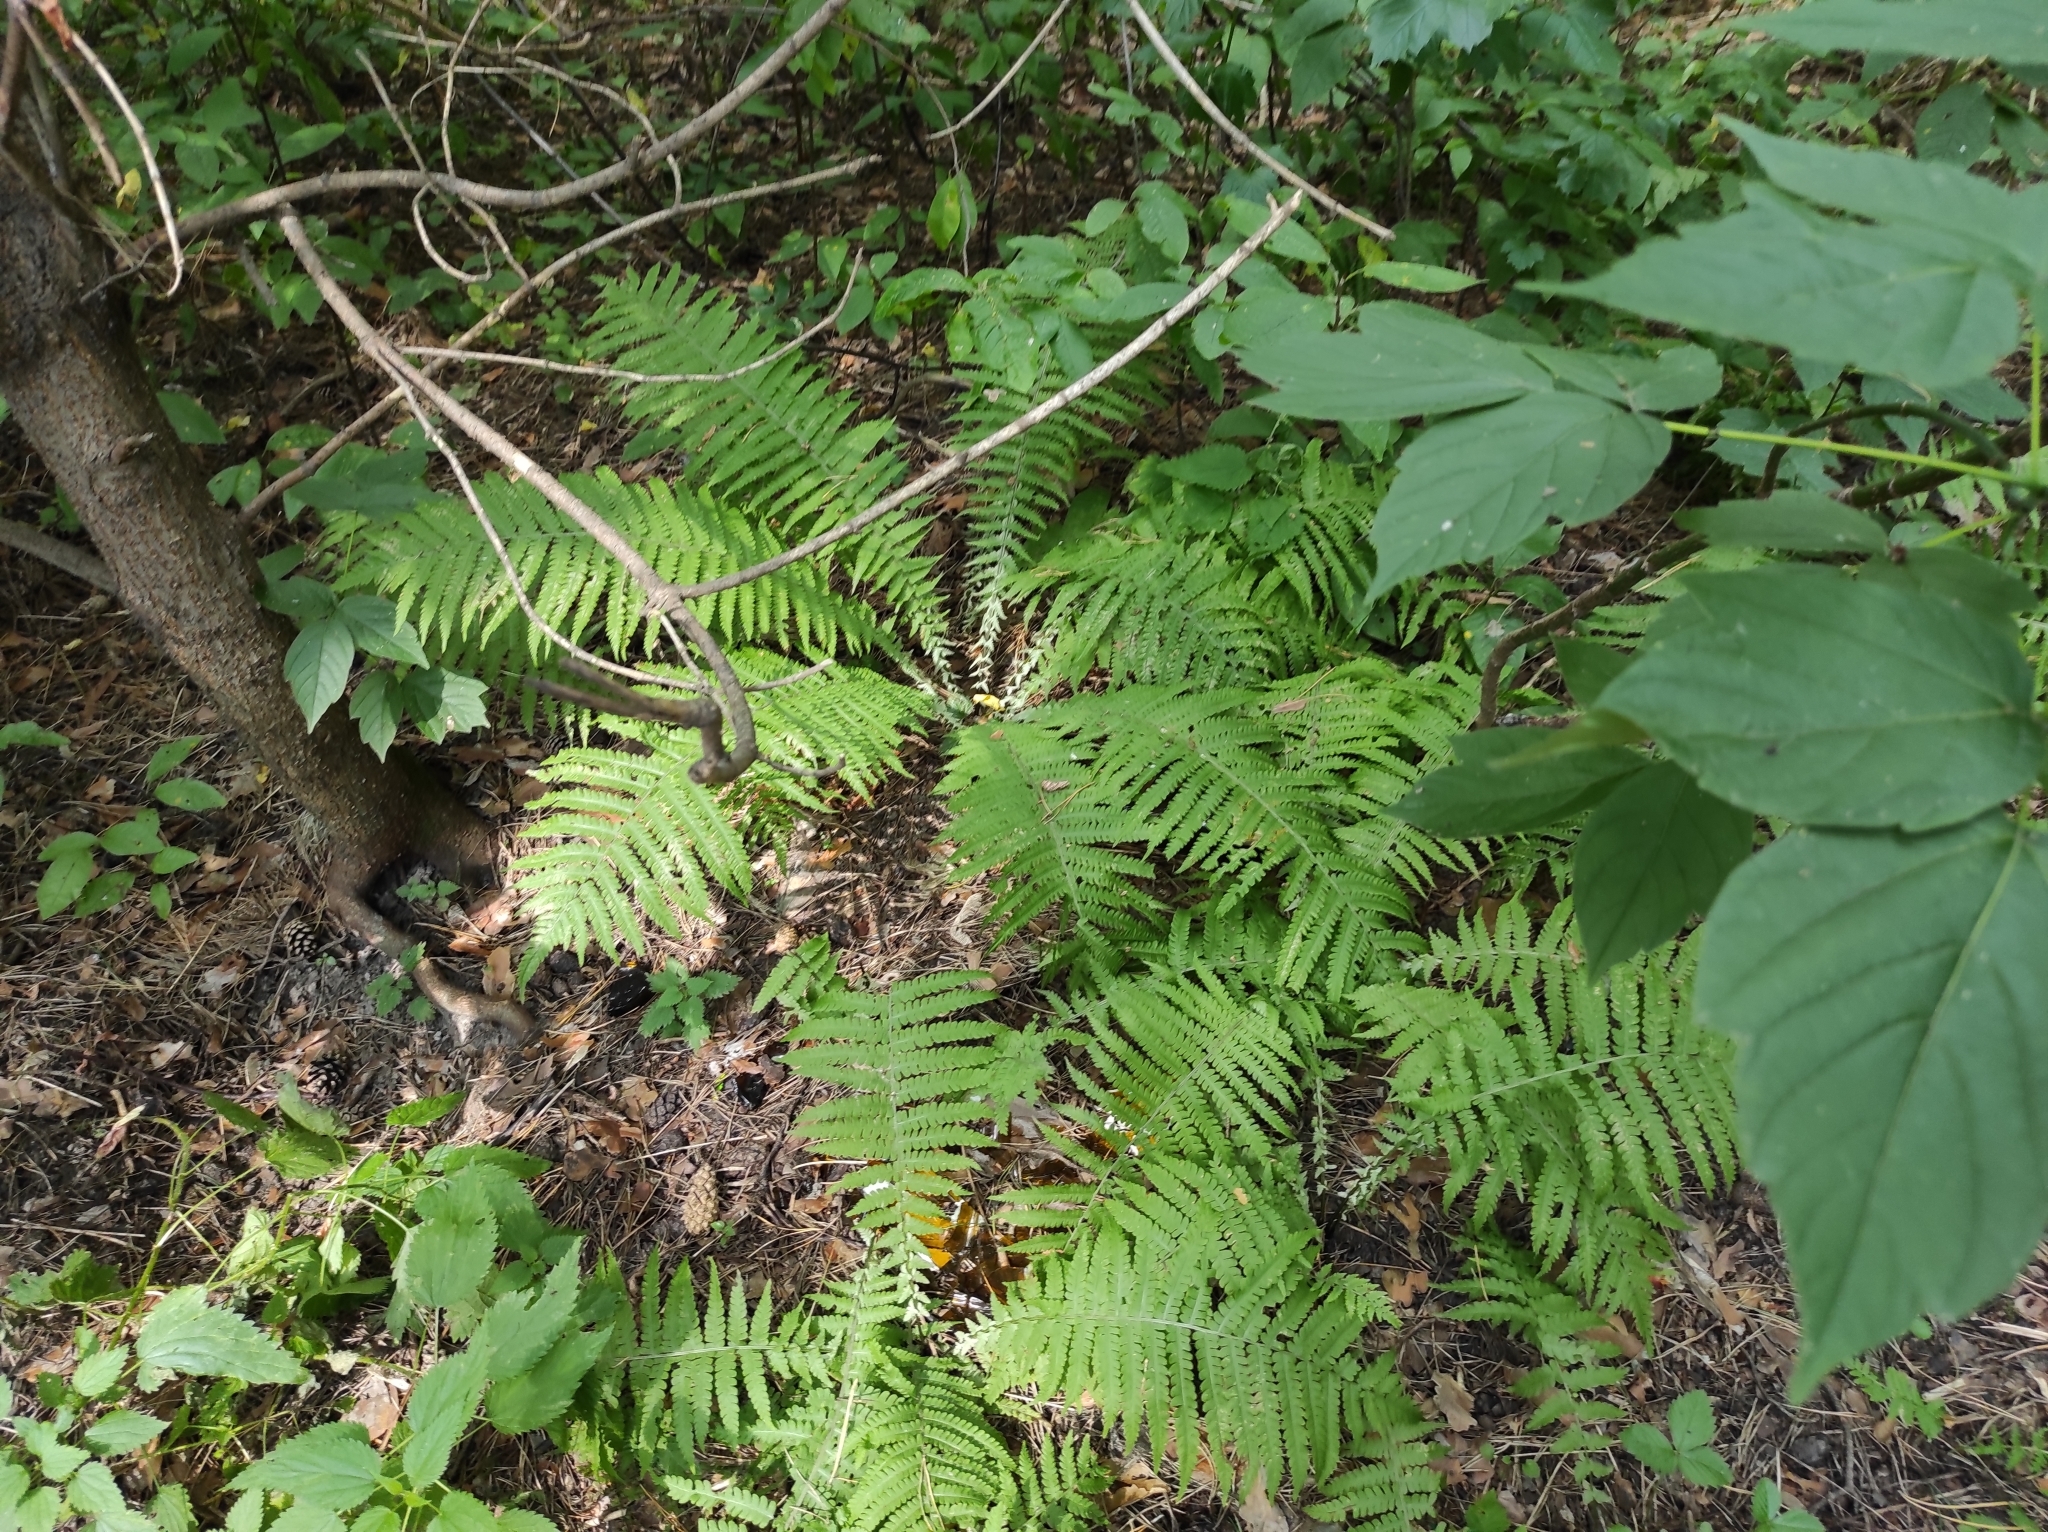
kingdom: Plantae
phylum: Tracheophyta
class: Polypodiopsida
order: Polypodiales
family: Onocleaceae
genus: Matteuccia
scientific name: Matteuccia struthiopteris
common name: Ostrich fern
